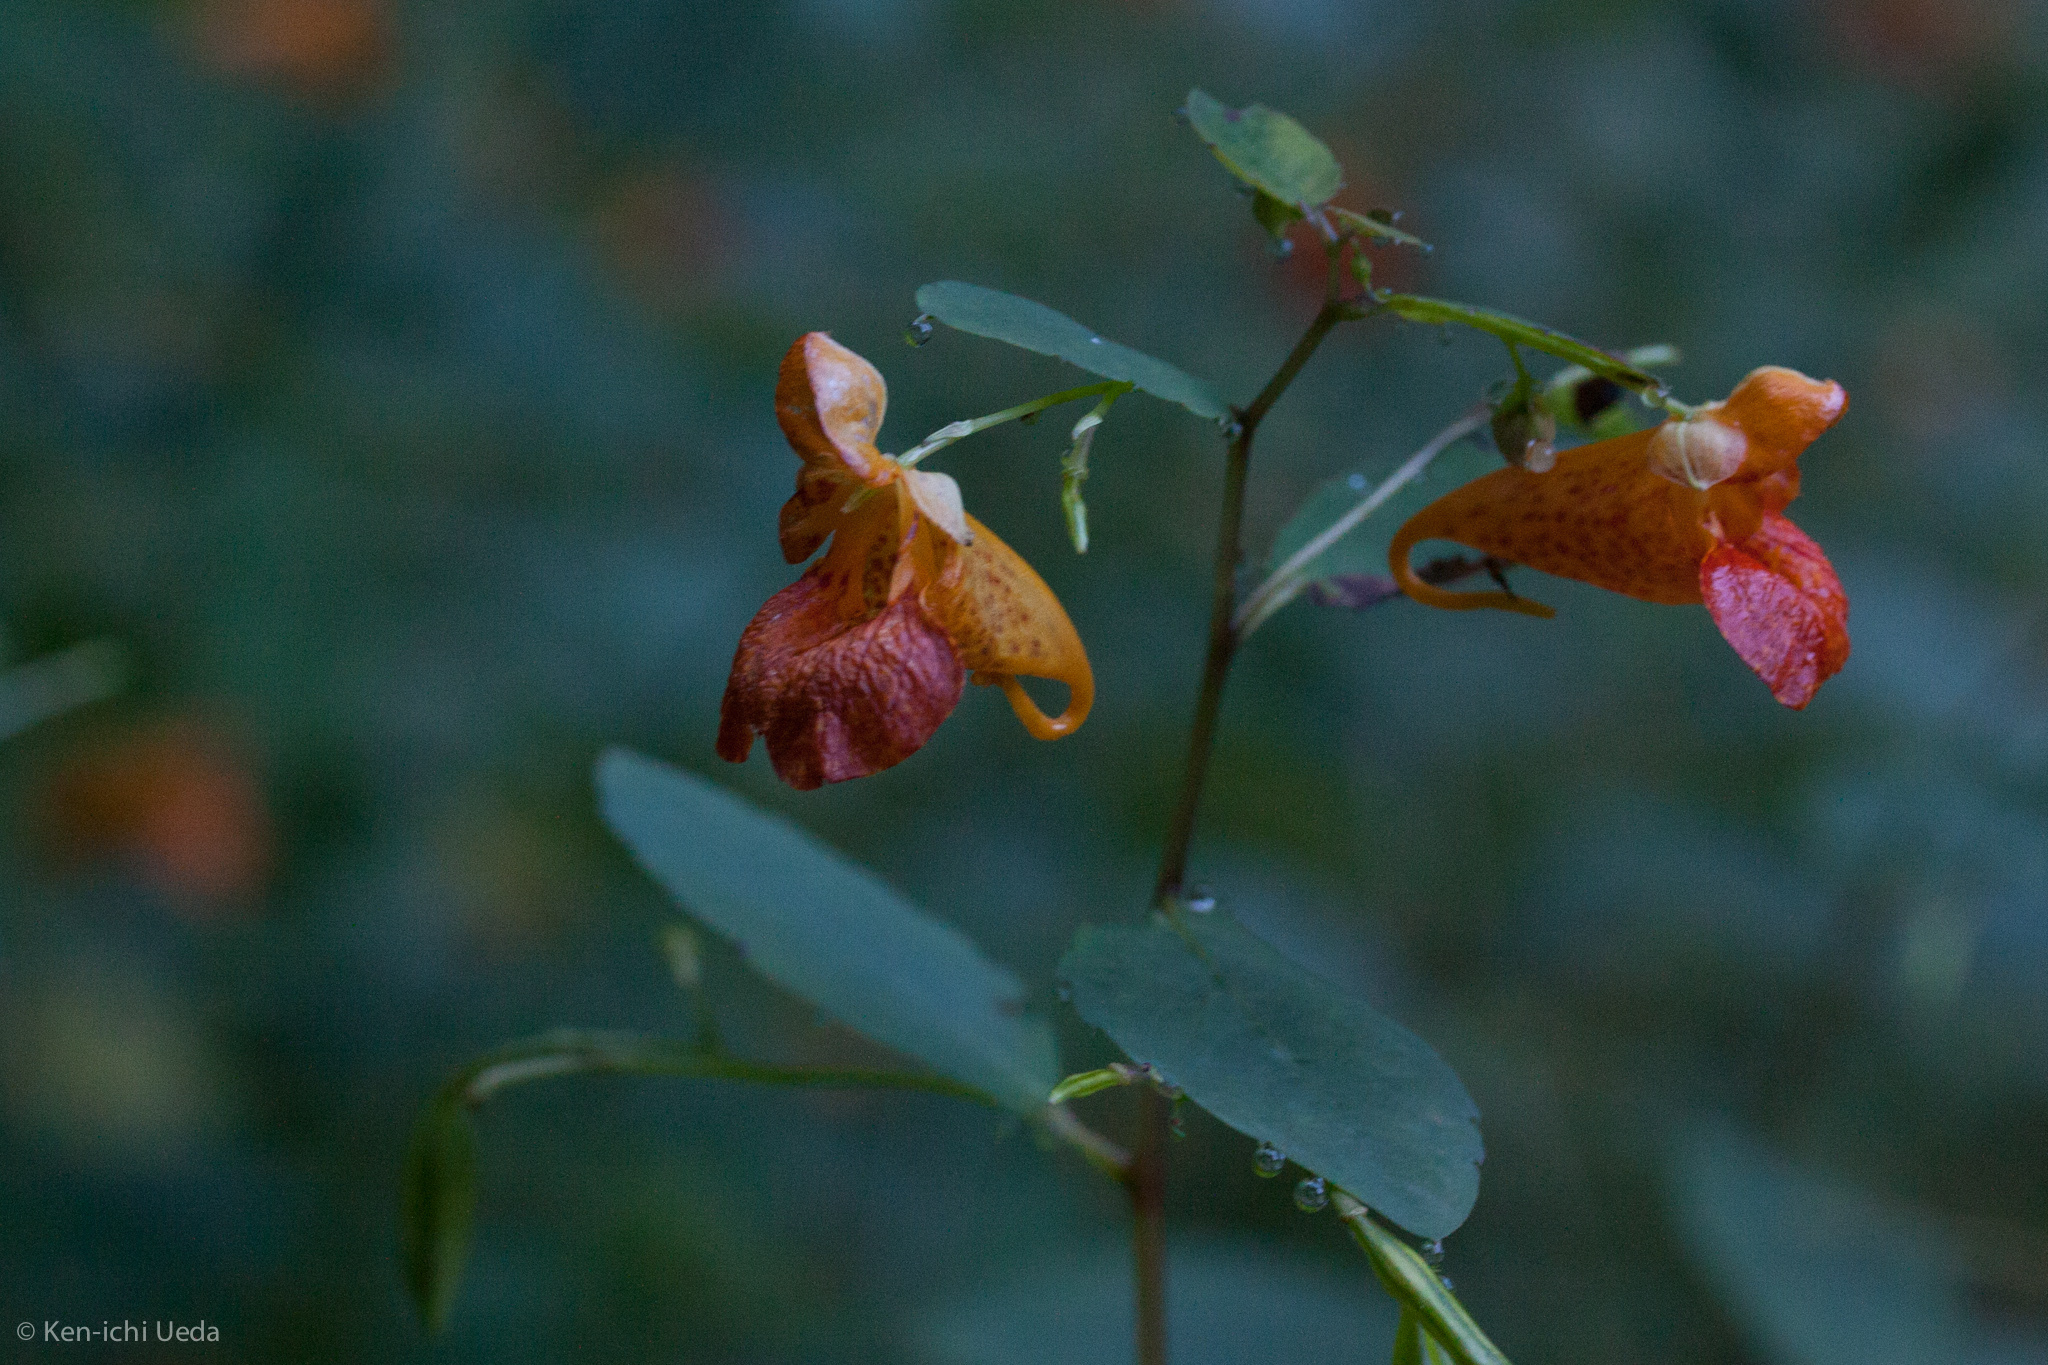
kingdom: Plantae
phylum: Tracheophyta
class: Magnoliopsida
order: Ericales
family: Balsaminaceae
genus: Impatiens
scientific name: Impatiens capensis
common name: Orange balsam
